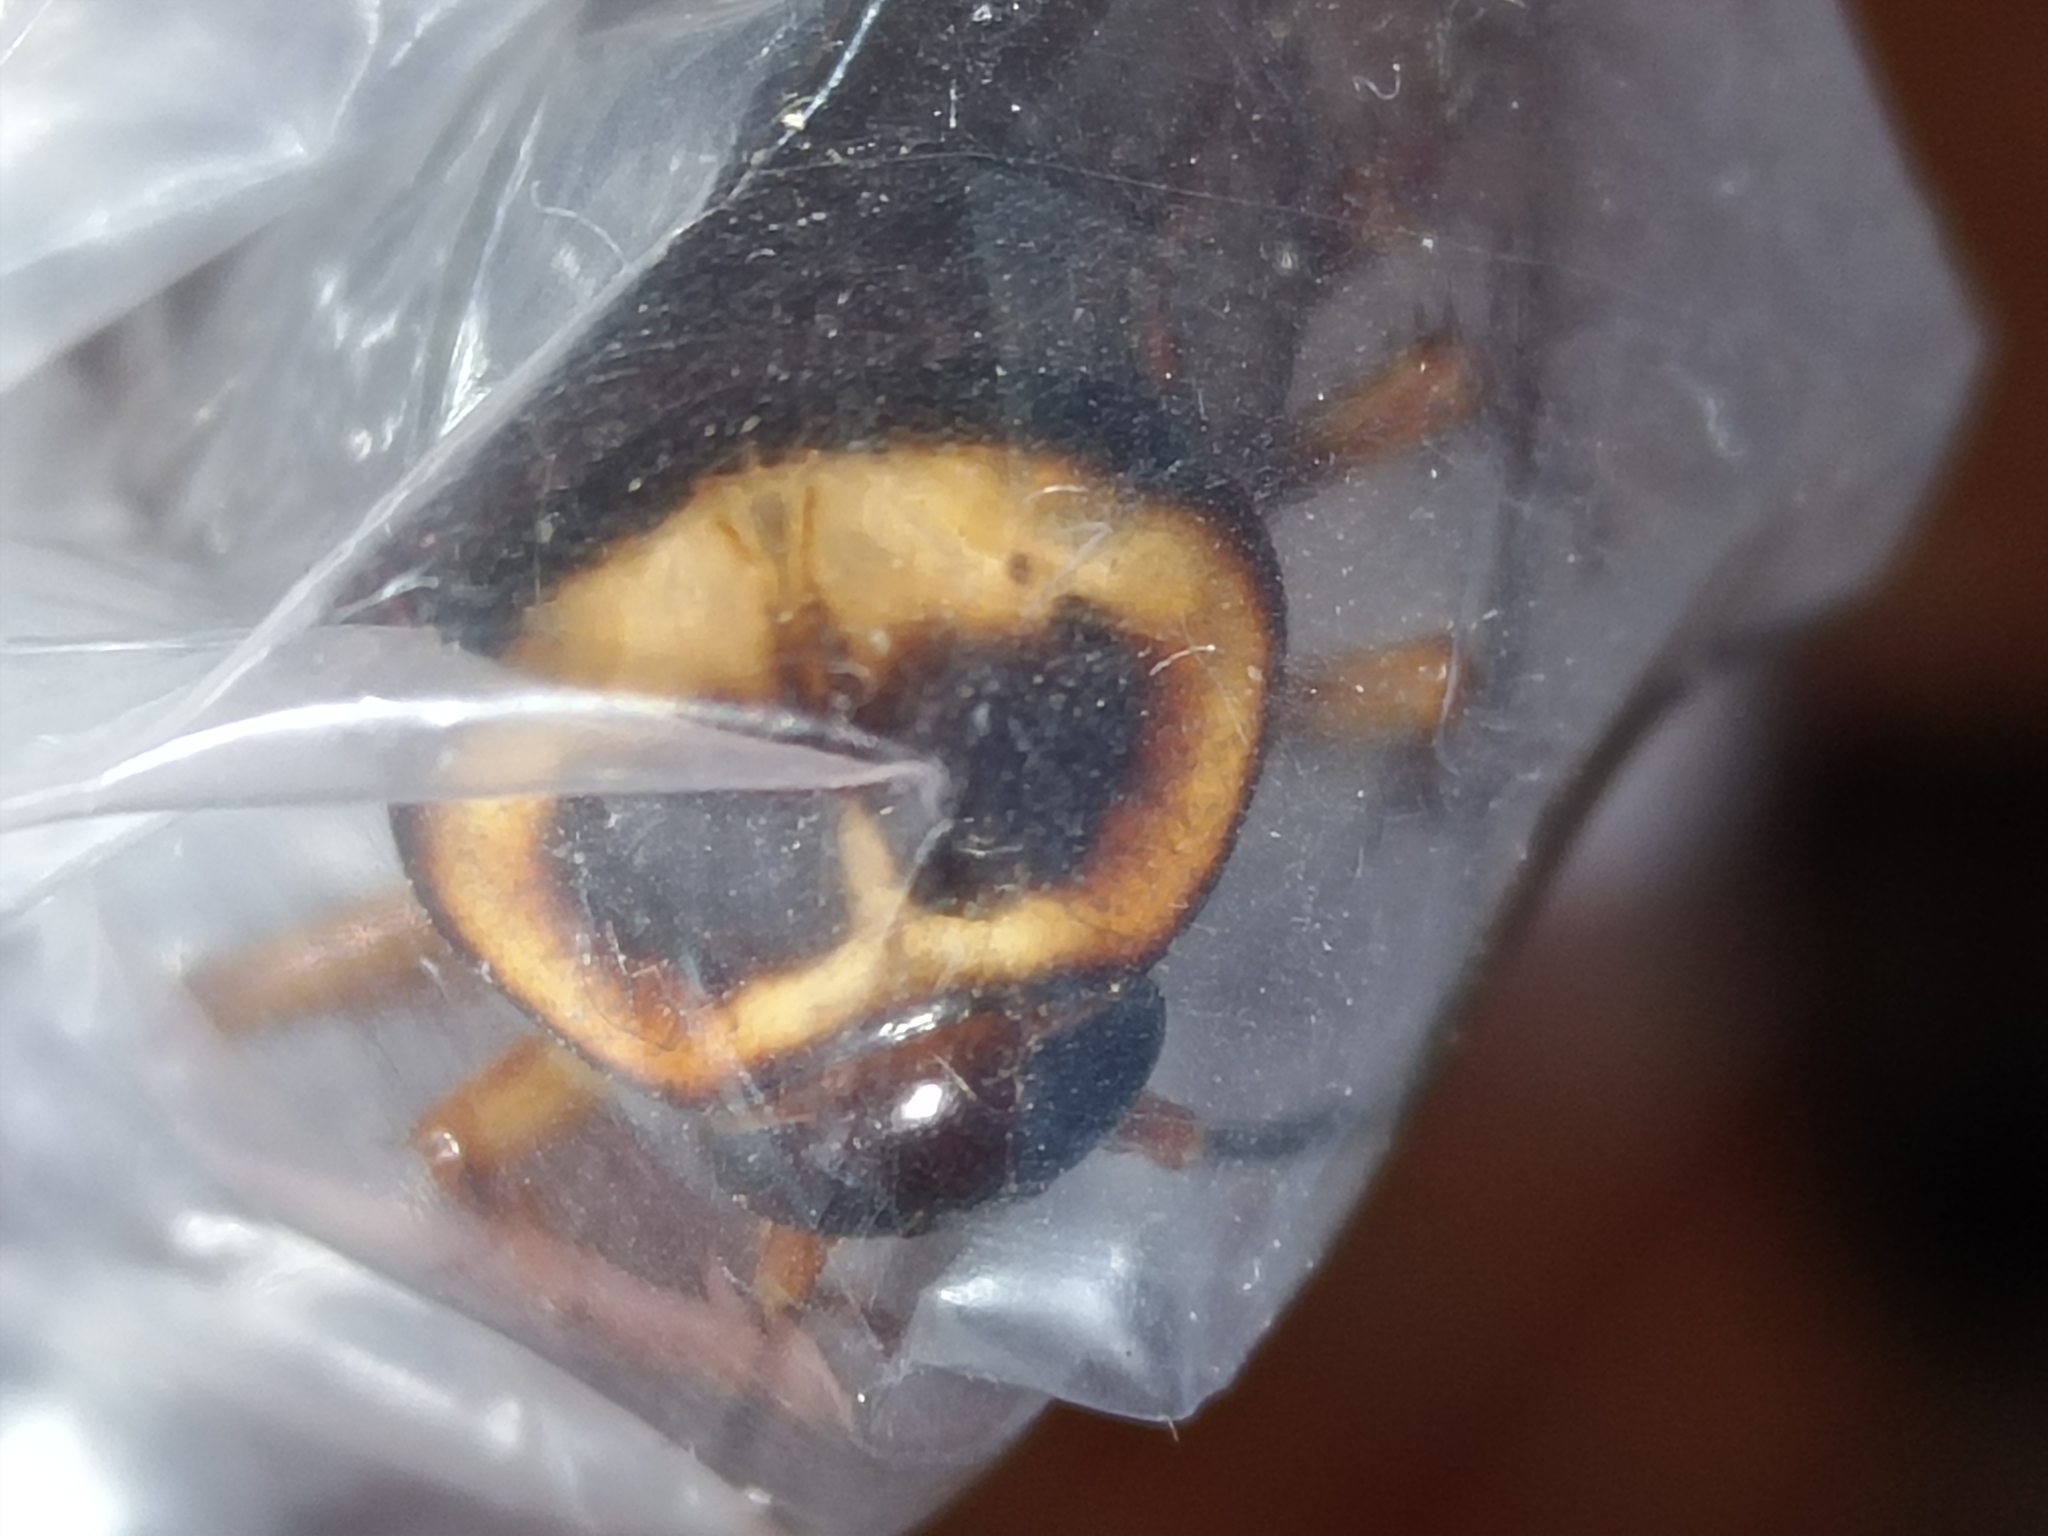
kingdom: Animalia
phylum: Arthropoda
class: Insecta
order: Blattodea
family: Blattidae
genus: Periplaneta
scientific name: Periplaneta americana
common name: American cockroach
